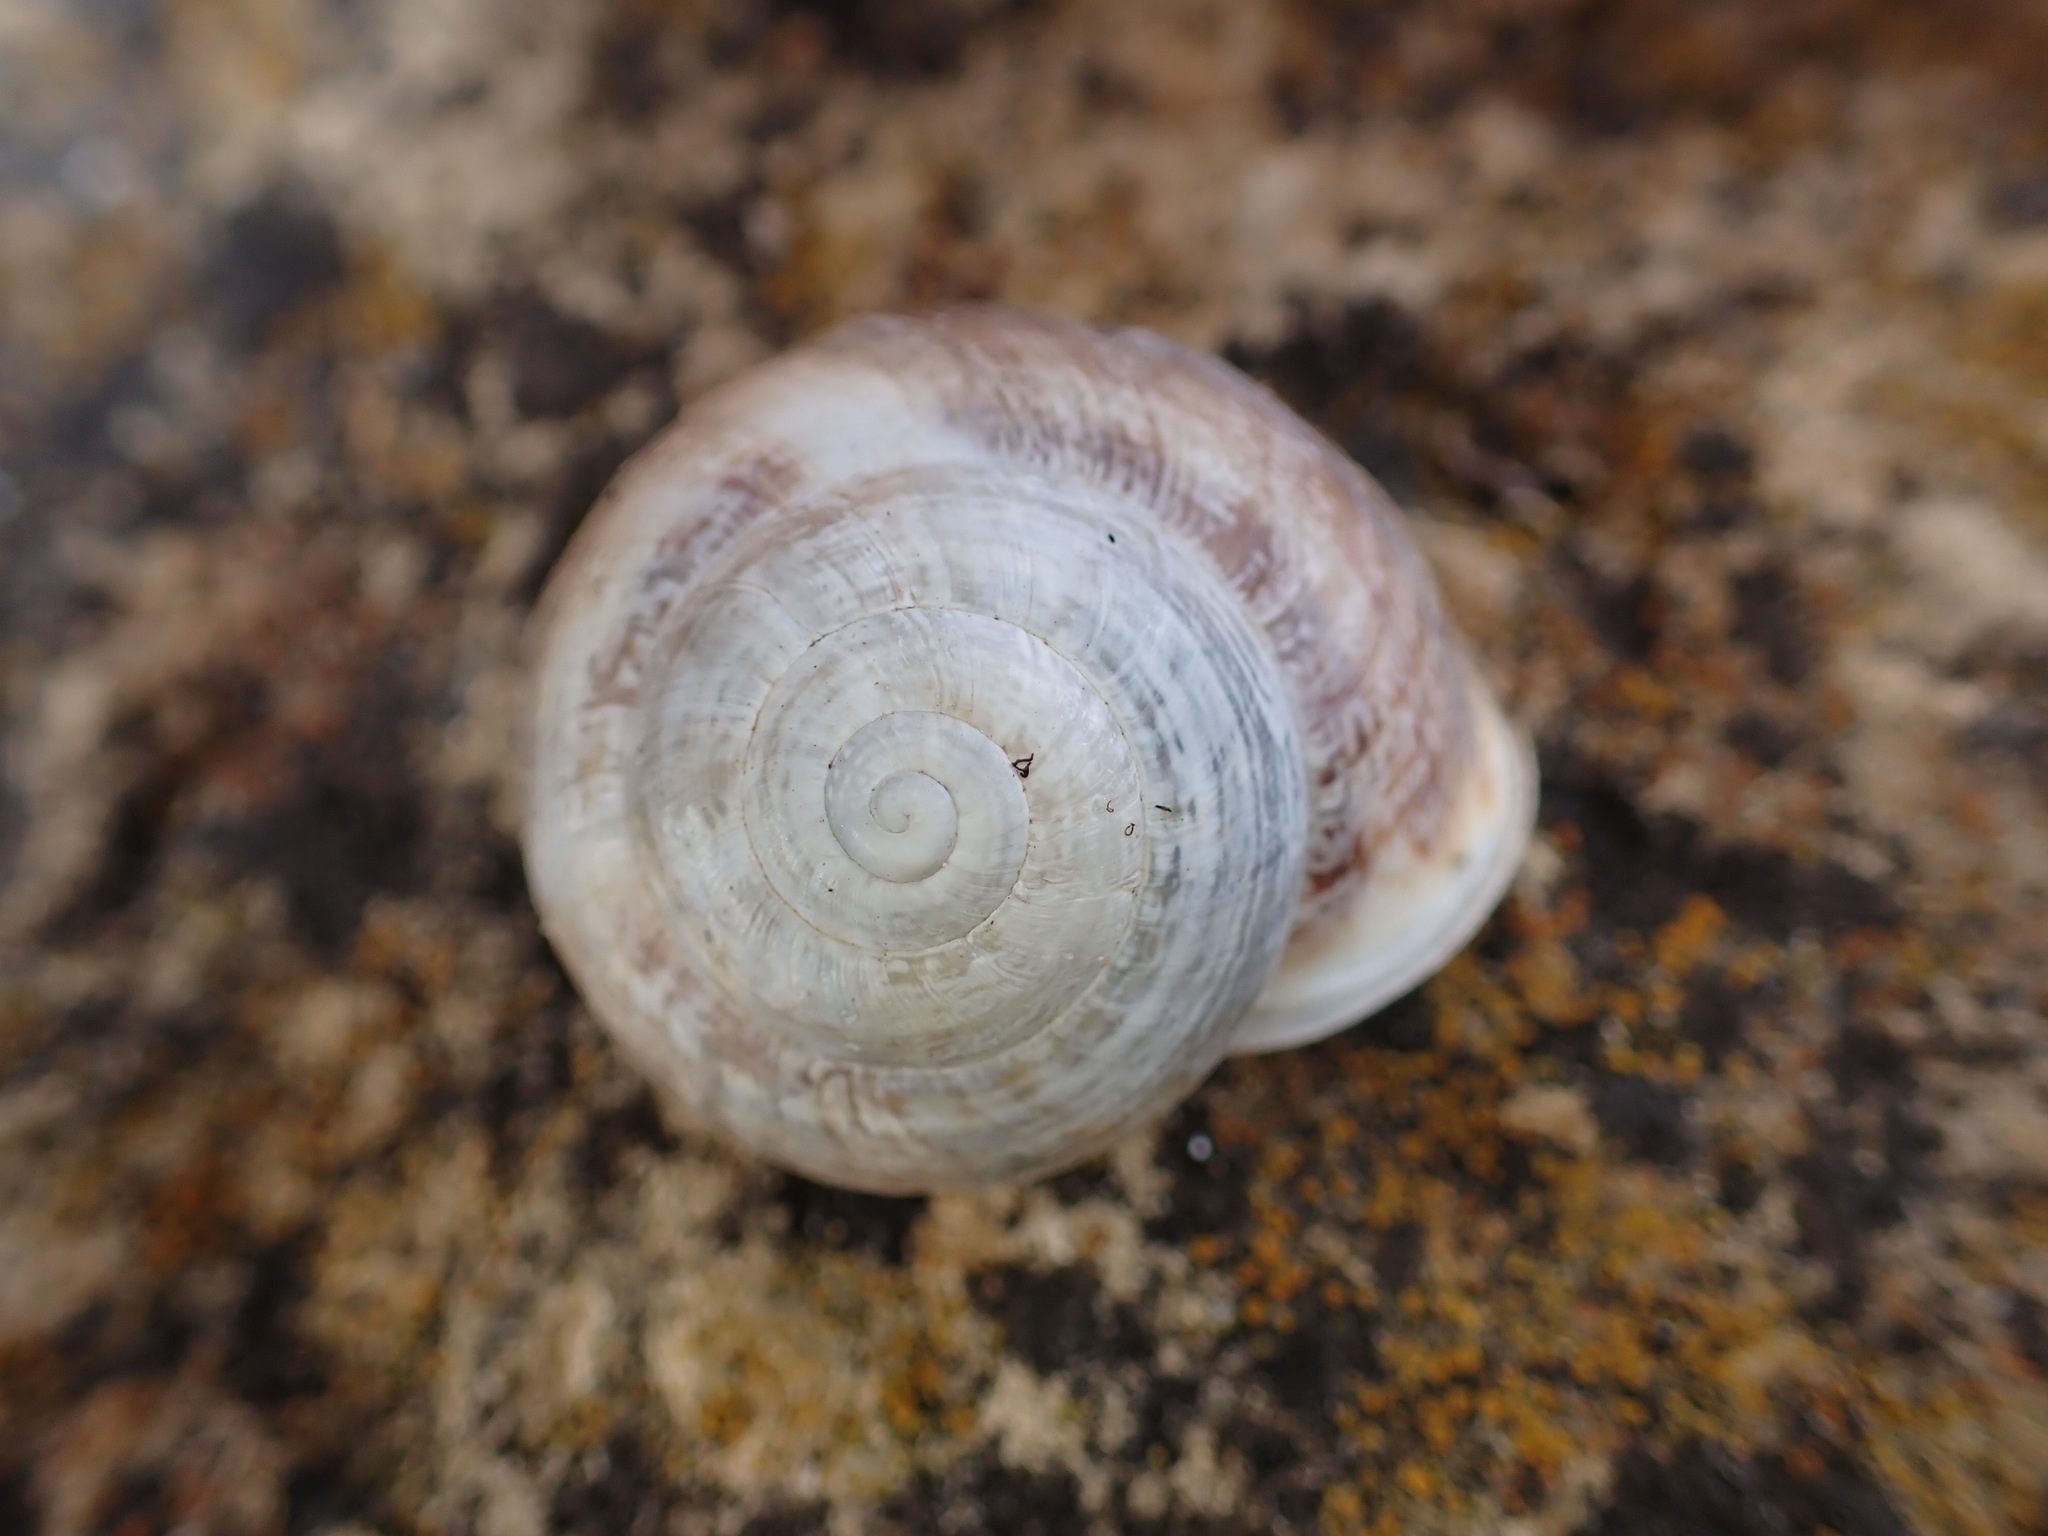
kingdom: Animalia
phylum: Mollusca
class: Gastropoda
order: Stylommatophora
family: Helicidae
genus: Eobania
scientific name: Eobania vermiculata
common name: Chocolateband snail
